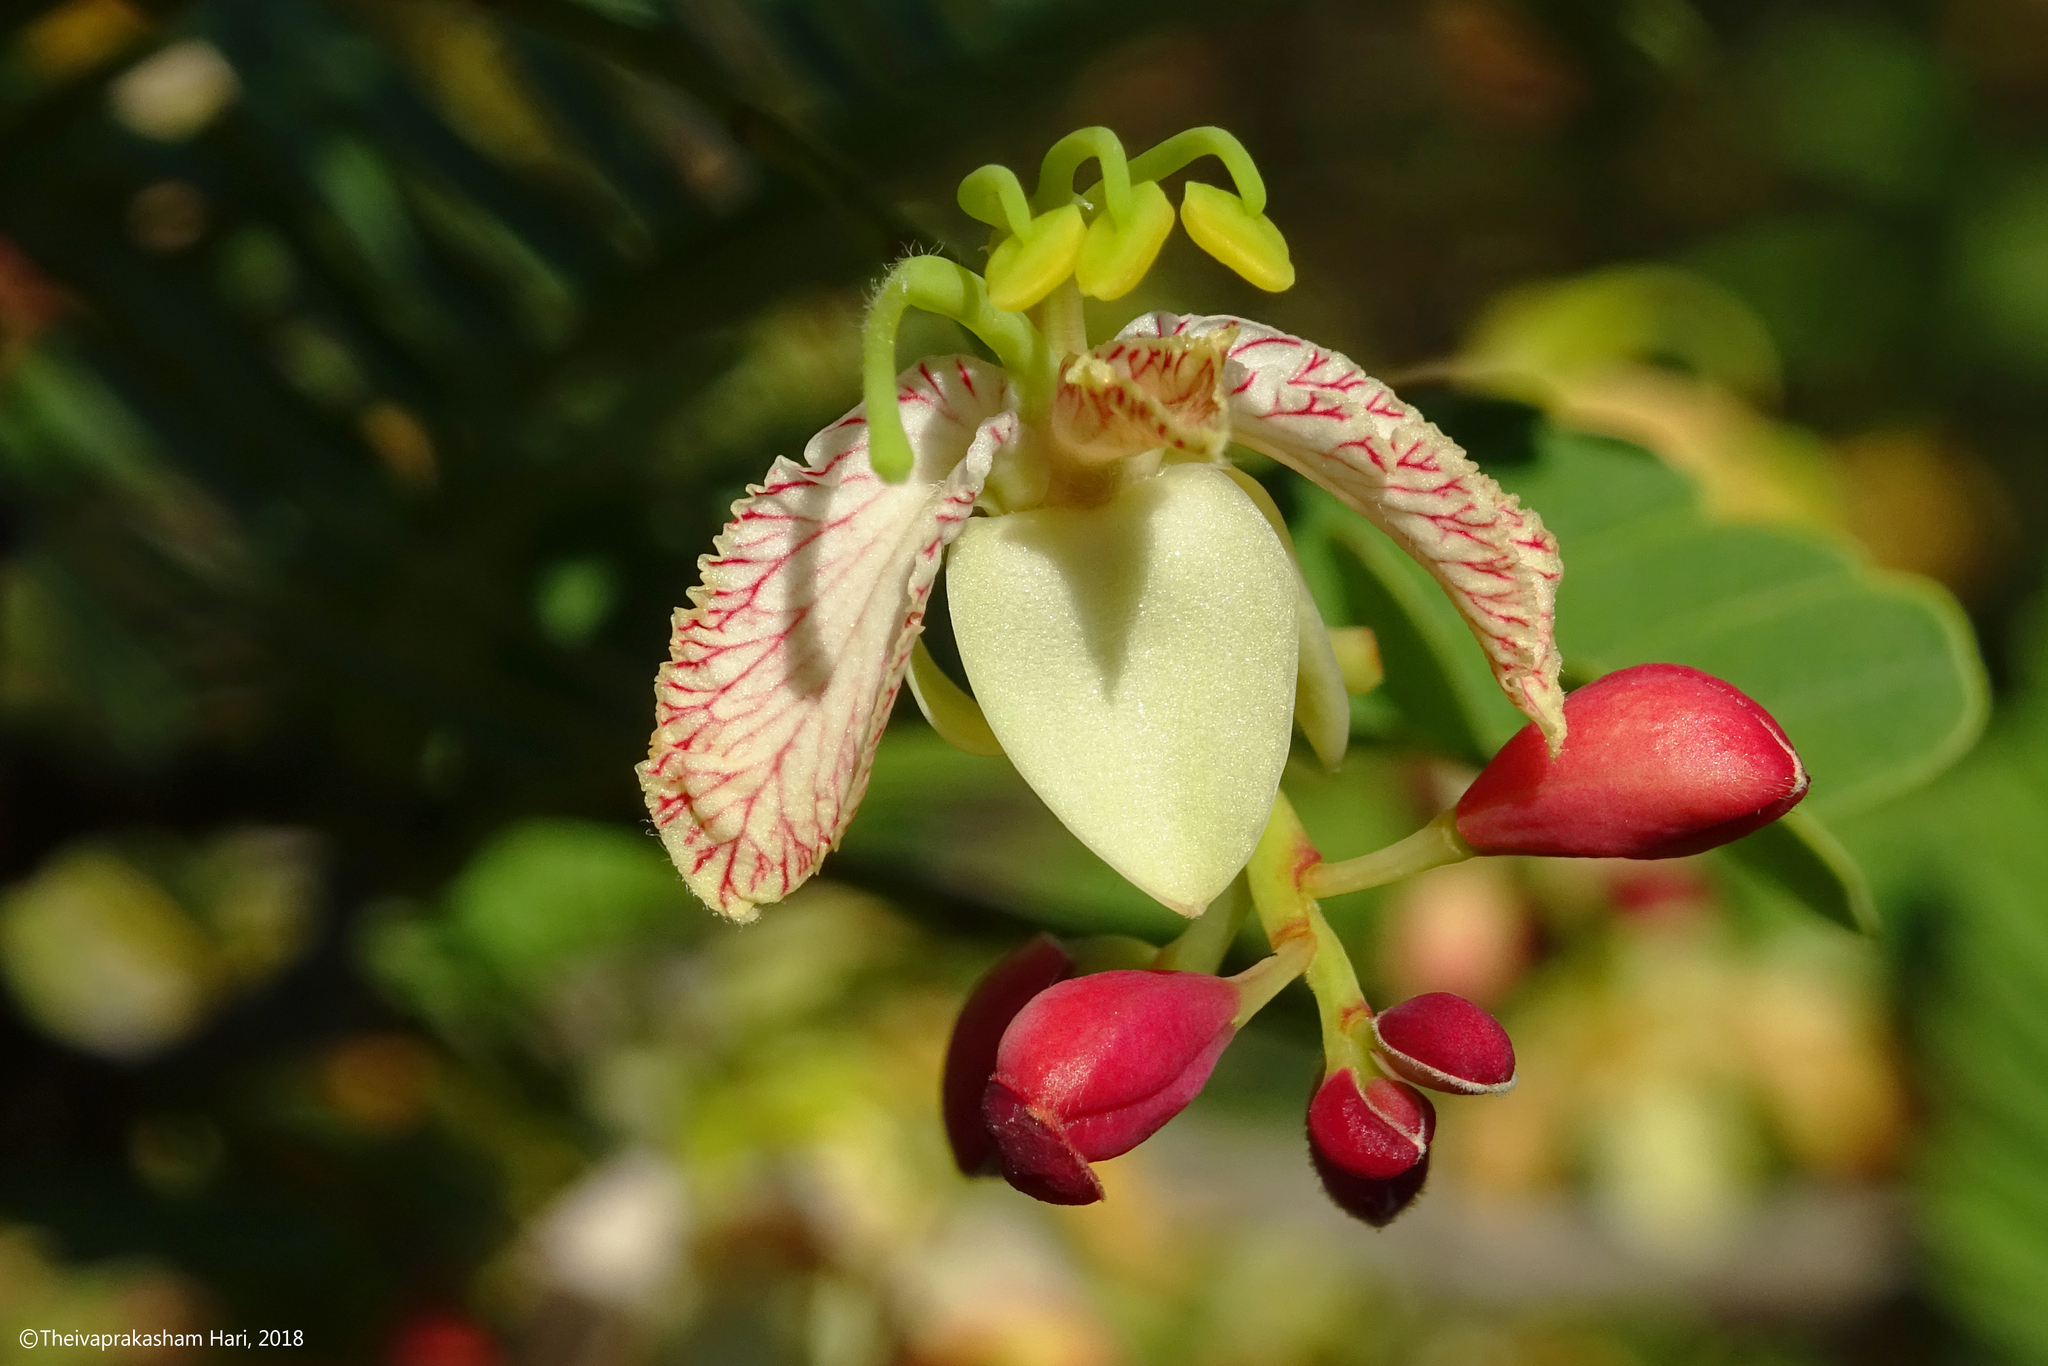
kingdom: Plantae
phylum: Tracheophyta
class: Magnoliopsida
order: Fabales
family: Fabaceae
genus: Tamarindus
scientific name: Tamarindus indica
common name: Tamarind
